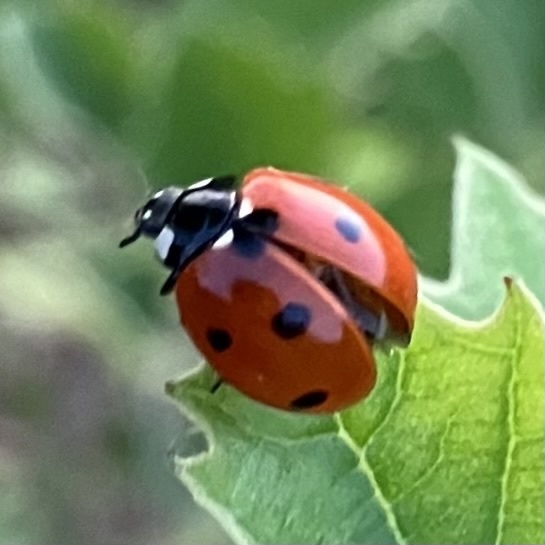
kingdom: Animalia
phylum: Arthropoda
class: Insecta
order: Coleoptera
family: Coccinellidae
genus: Coccinella
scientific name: Coccinella septempunctata
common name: Sevenspotted lady beetle
